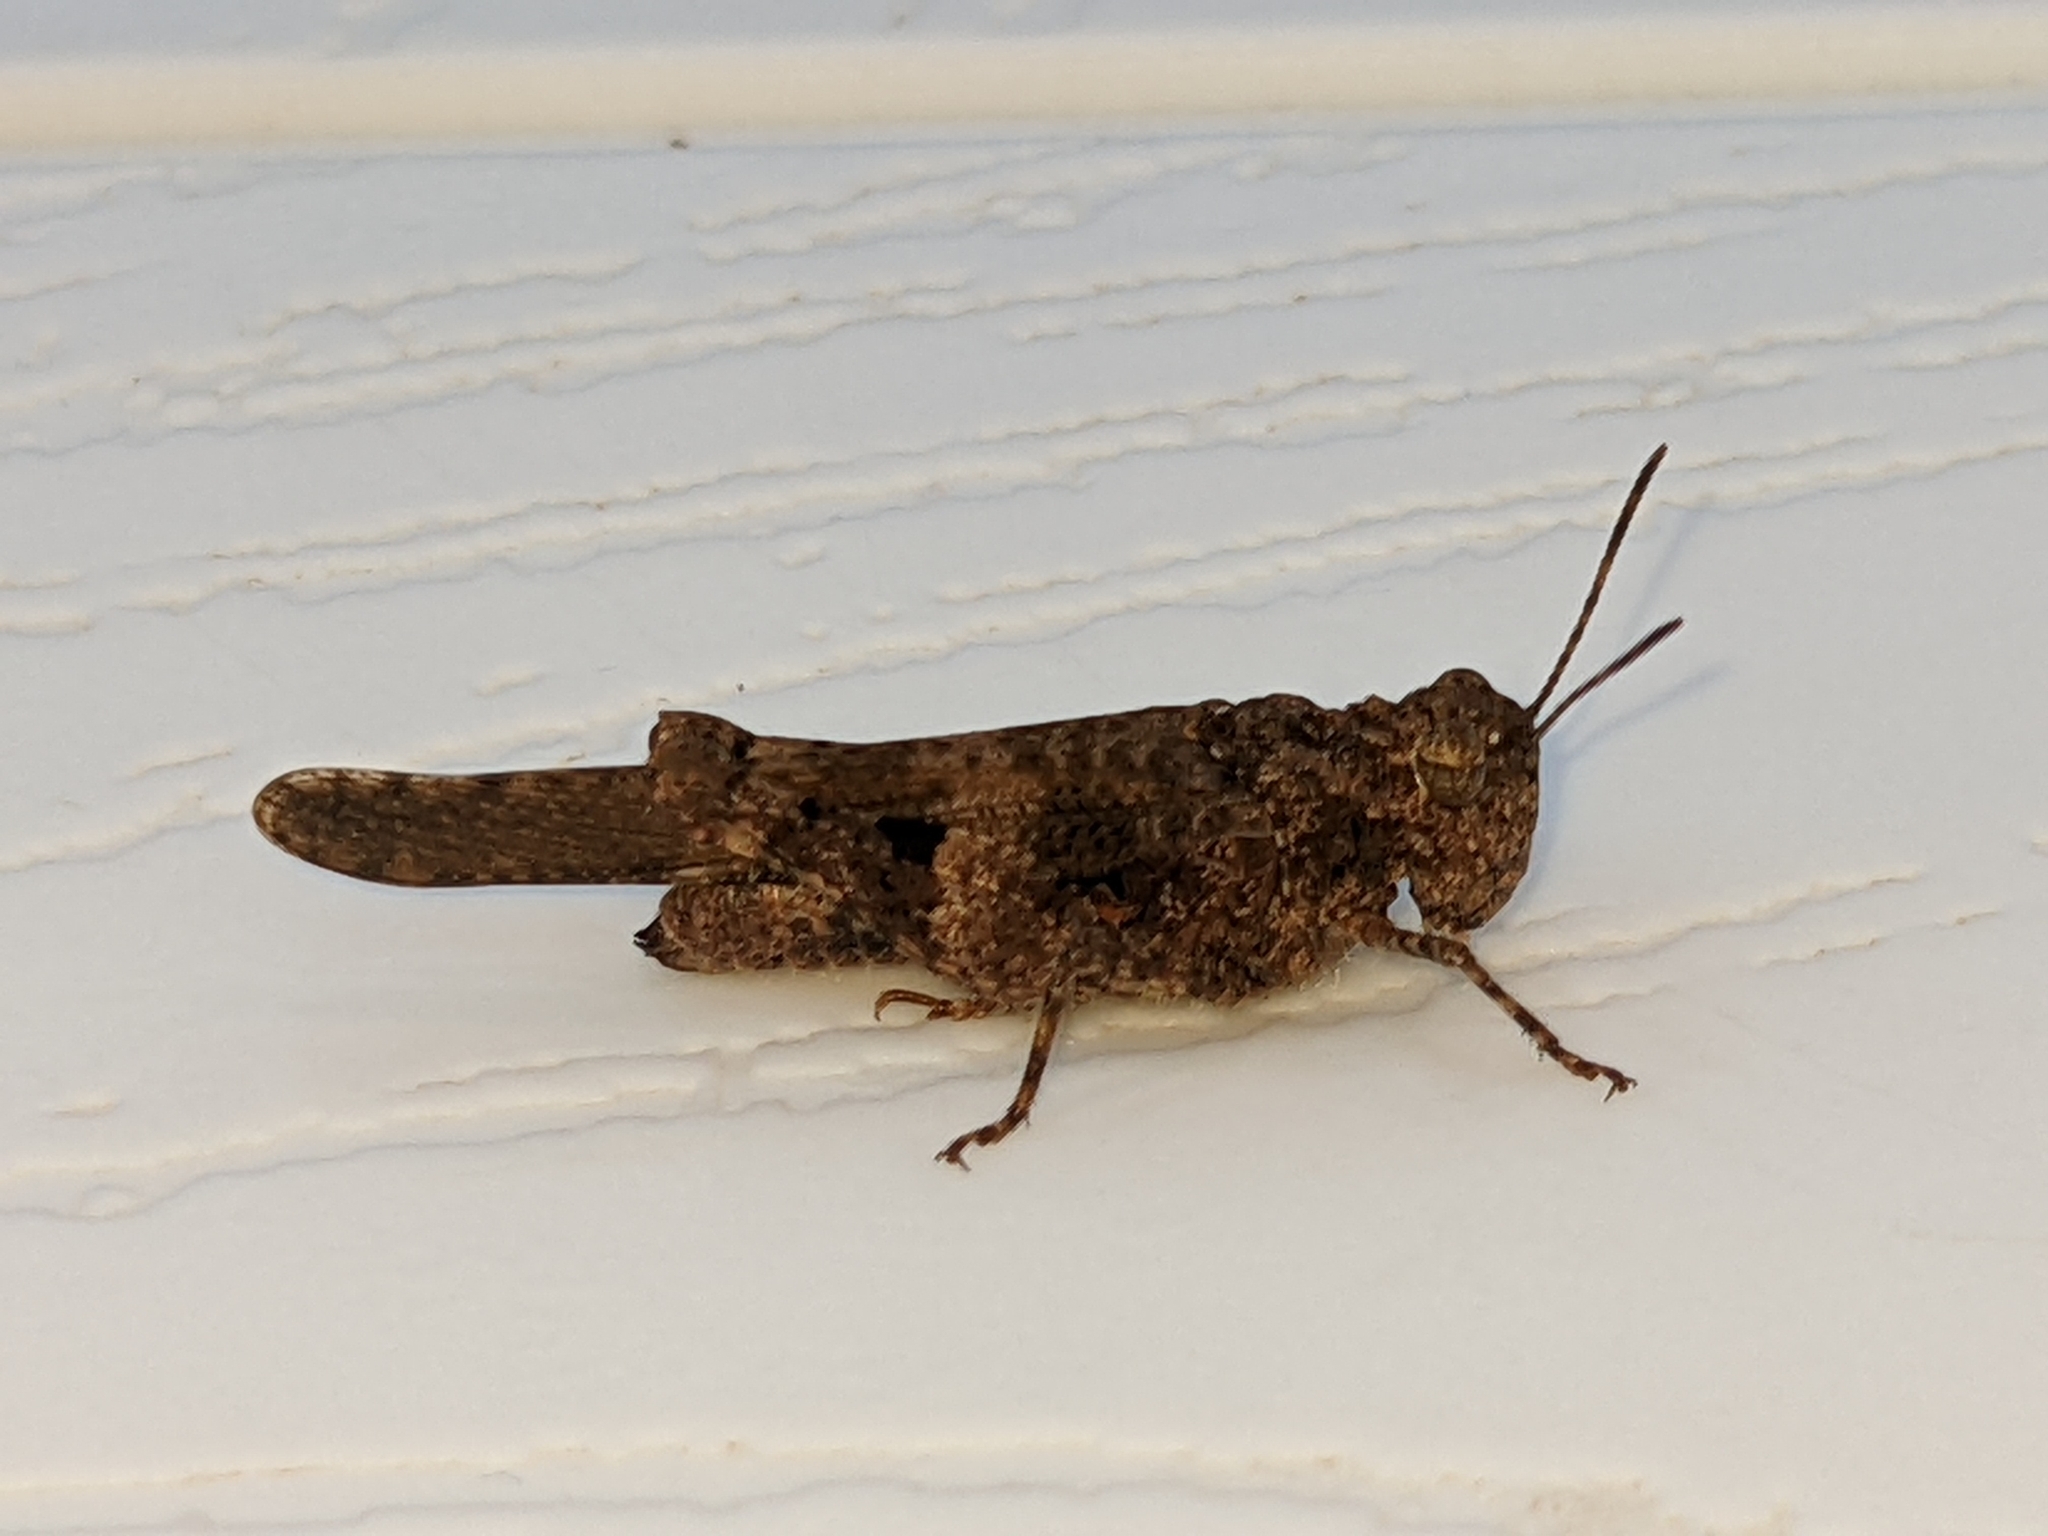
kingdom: Animalia
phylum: Arthropoda
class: Insecta
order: Orthoptera
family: Acrididae
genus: Trilophidia
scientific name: Trilophidia conturbata
